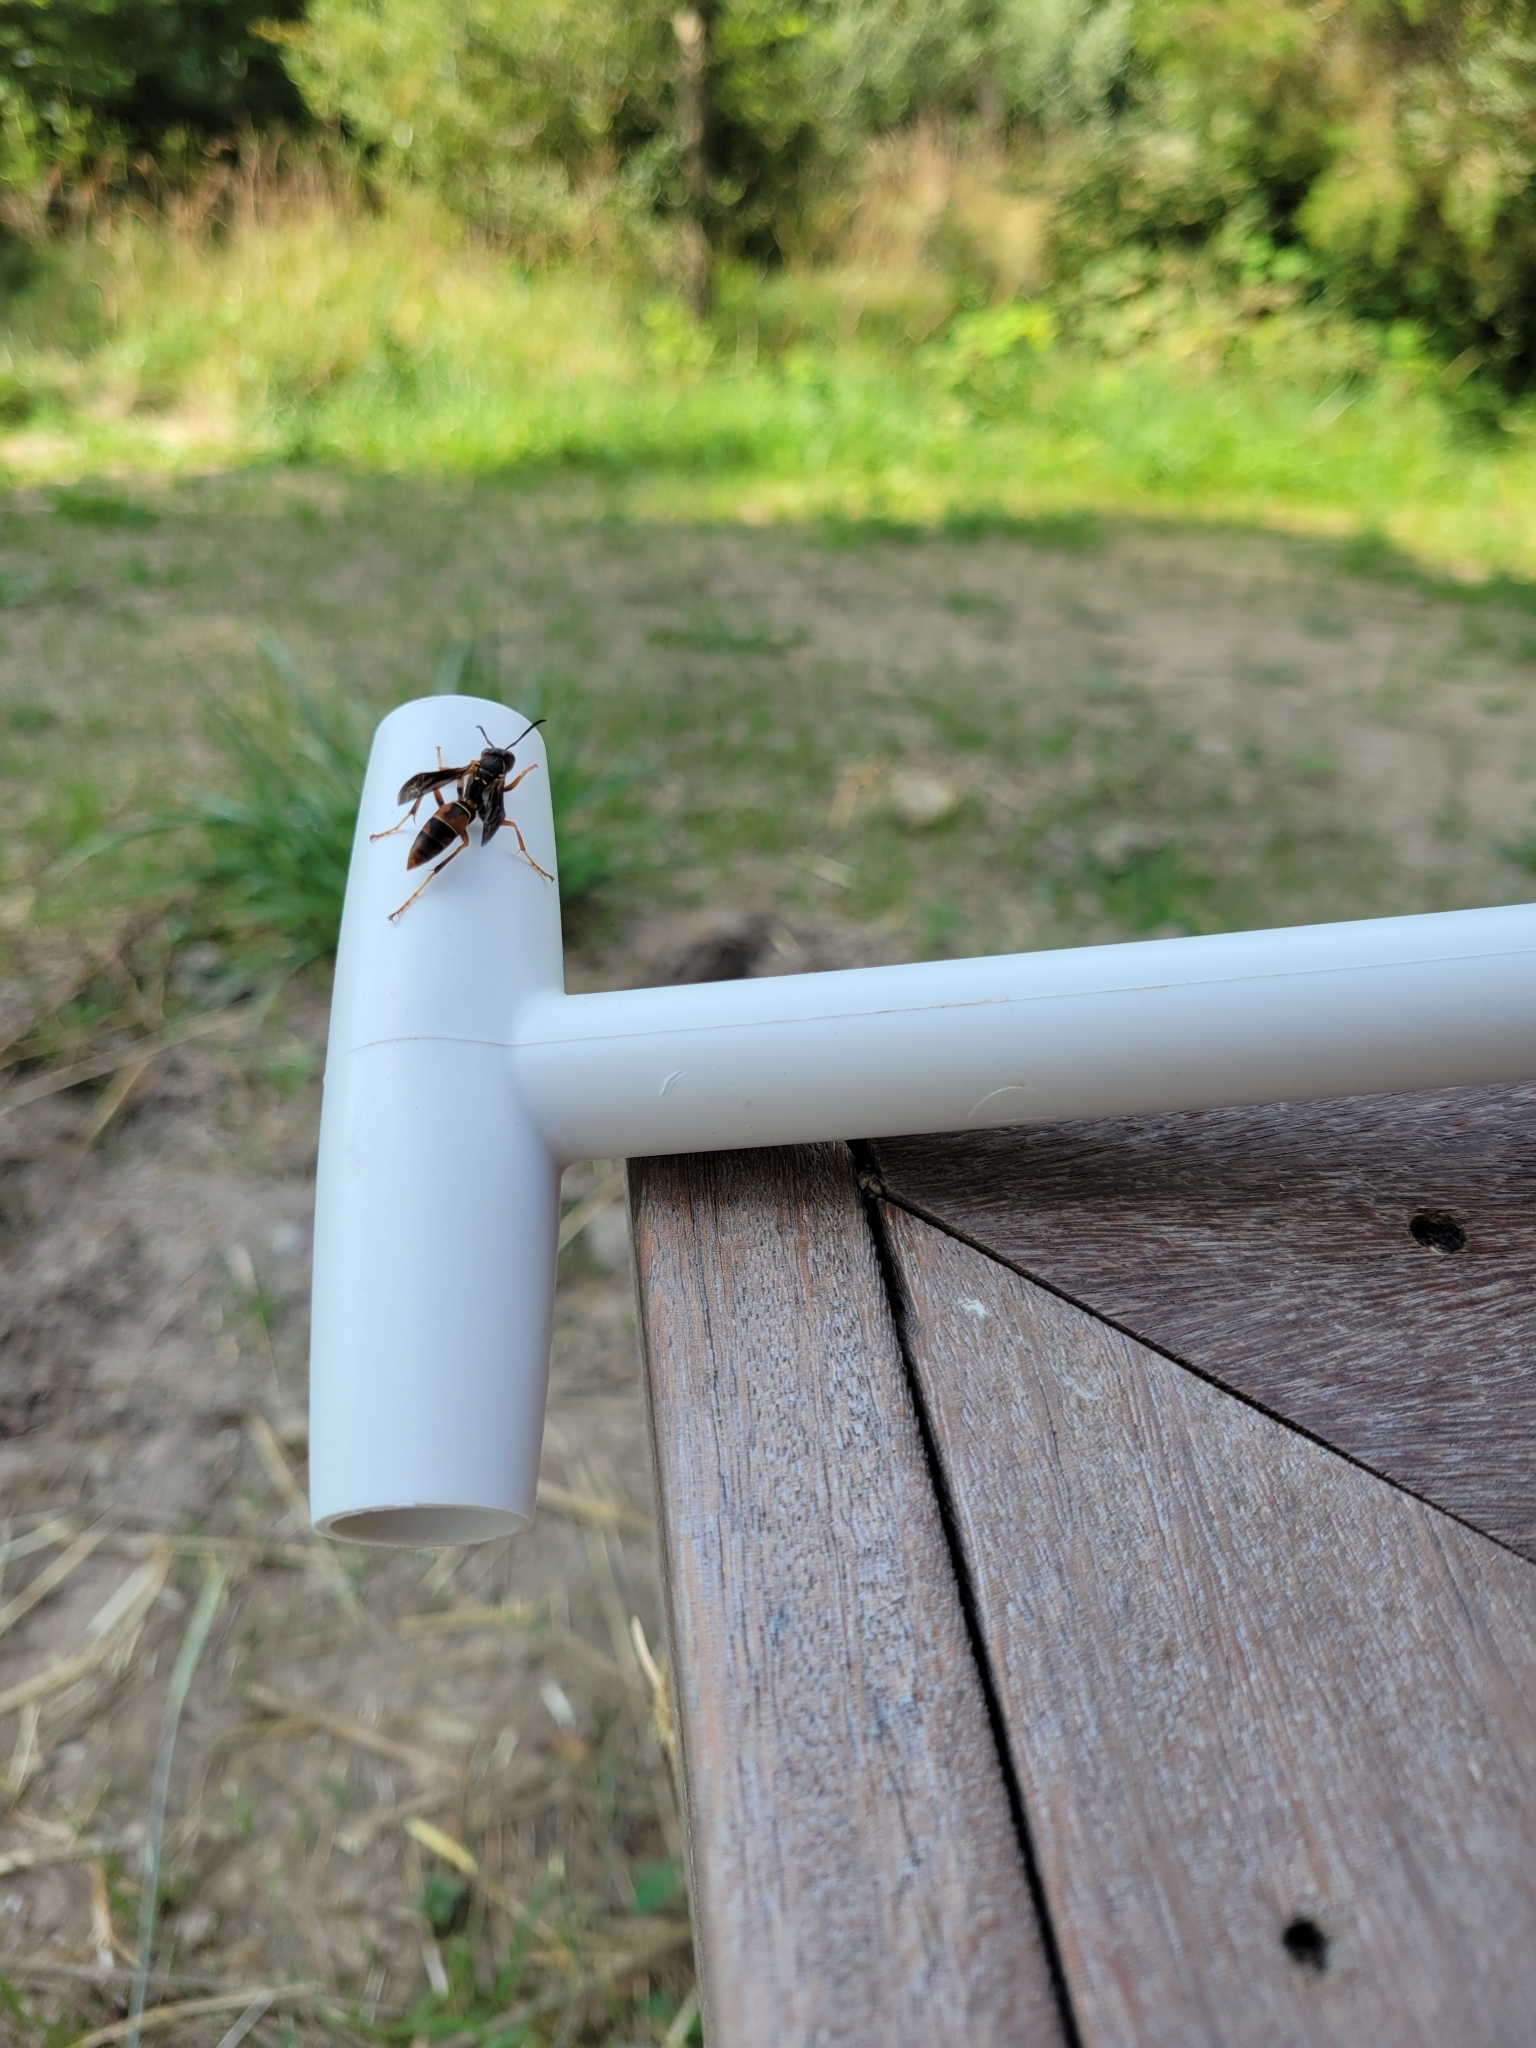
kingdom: Animalia
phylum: Arthropoda
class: Insecta
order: Hymenoptera
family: Eumenidae
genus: Polistes
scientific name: Polistes fuscatus
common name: Dark paper wasp
